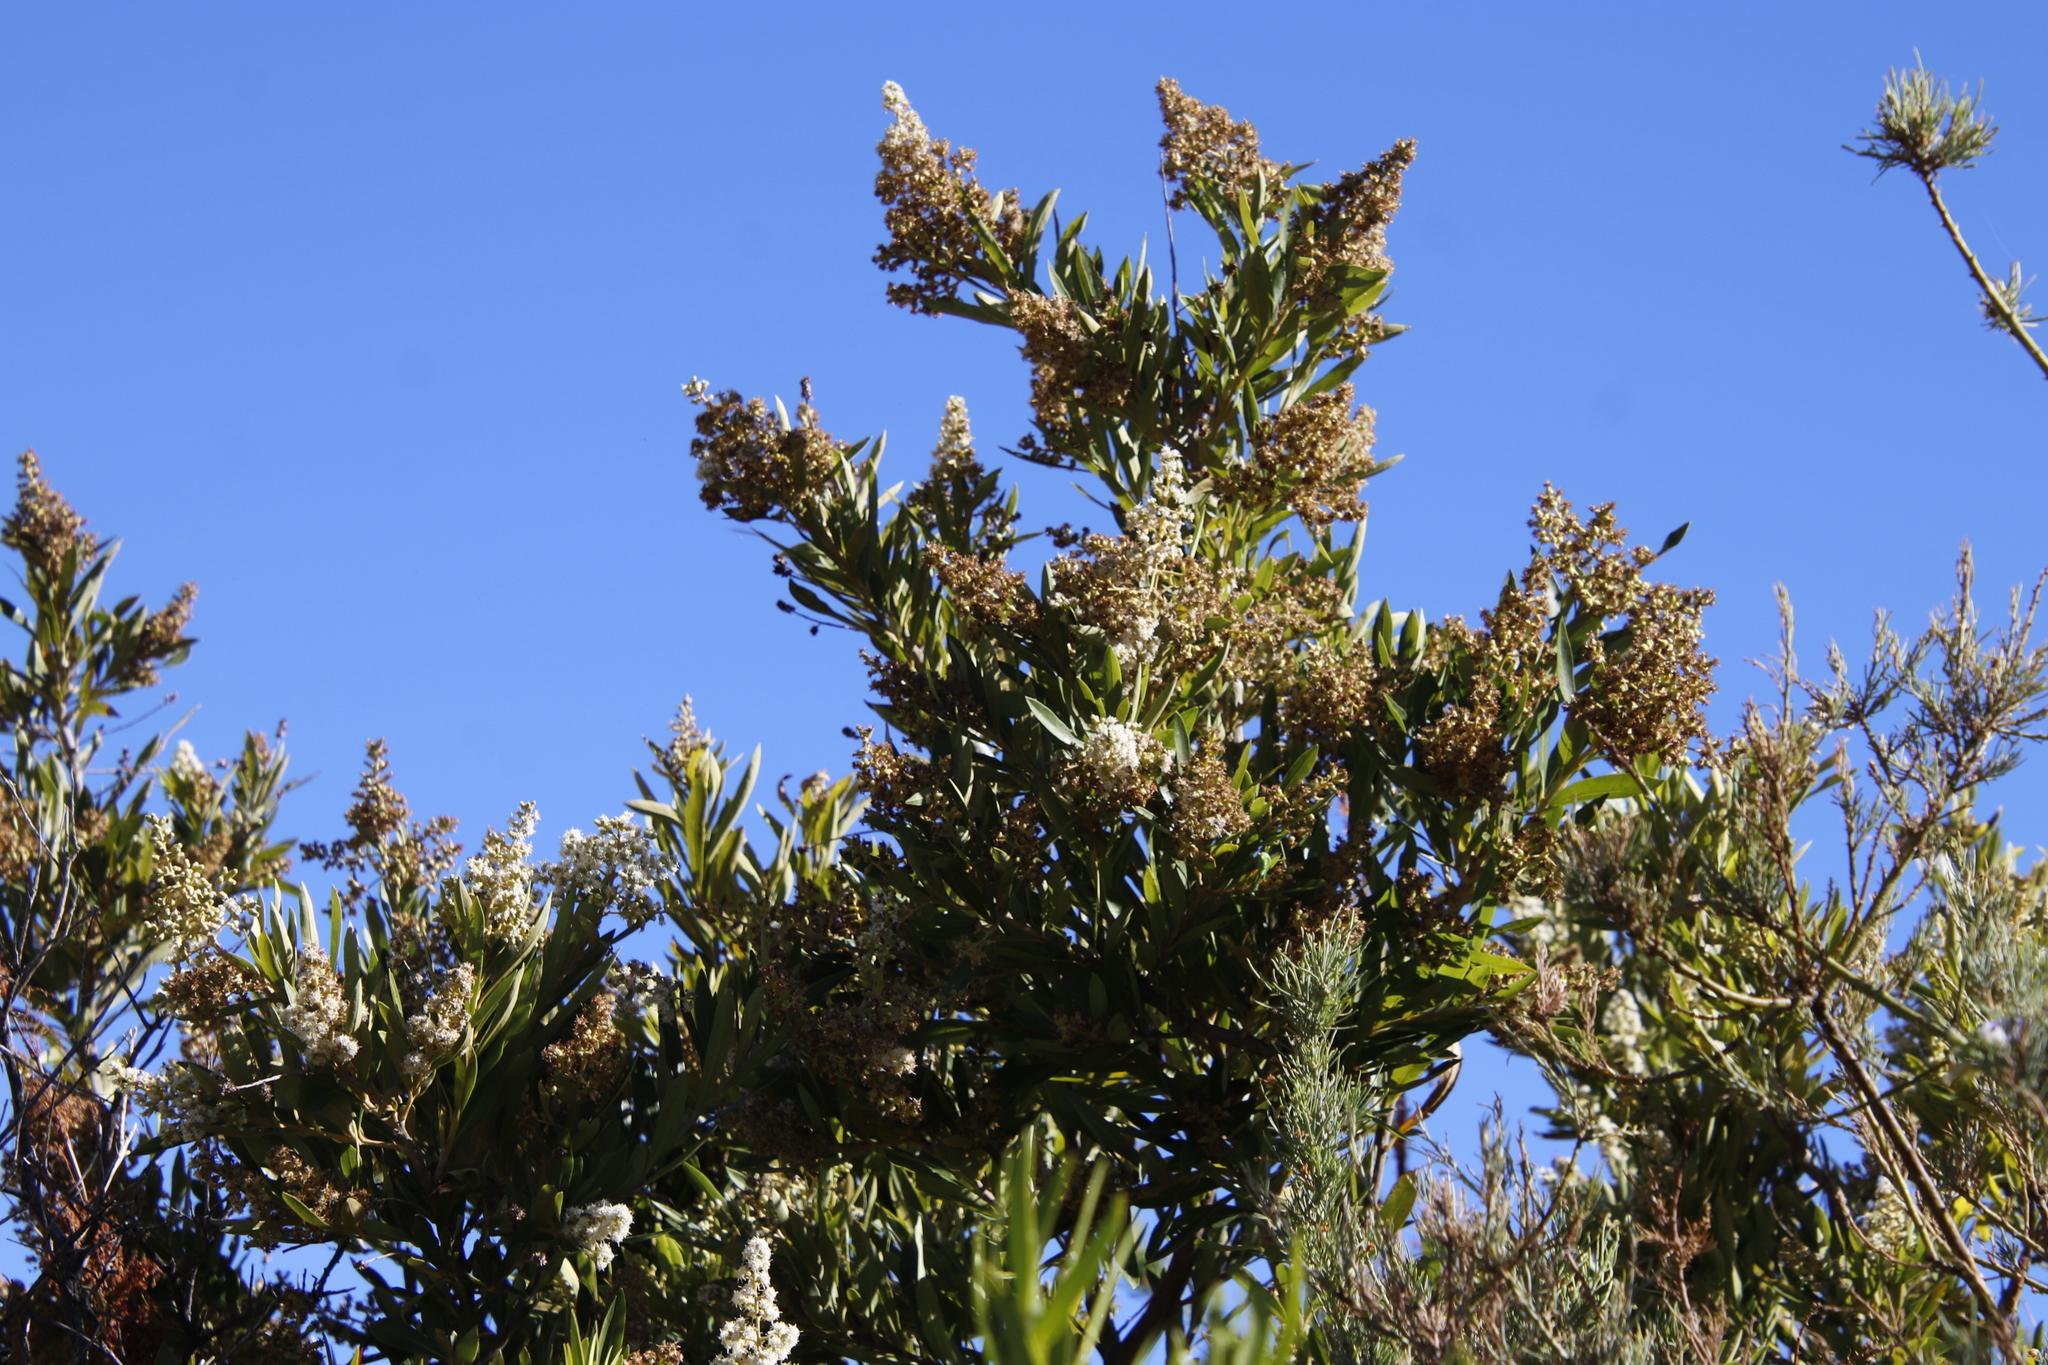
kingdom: Plantae
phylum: Tracheophyta
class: Magnoliopsida
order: Asterales
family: Asteraceae
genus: Brachylaena
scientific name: Brachylaena neriifolia
